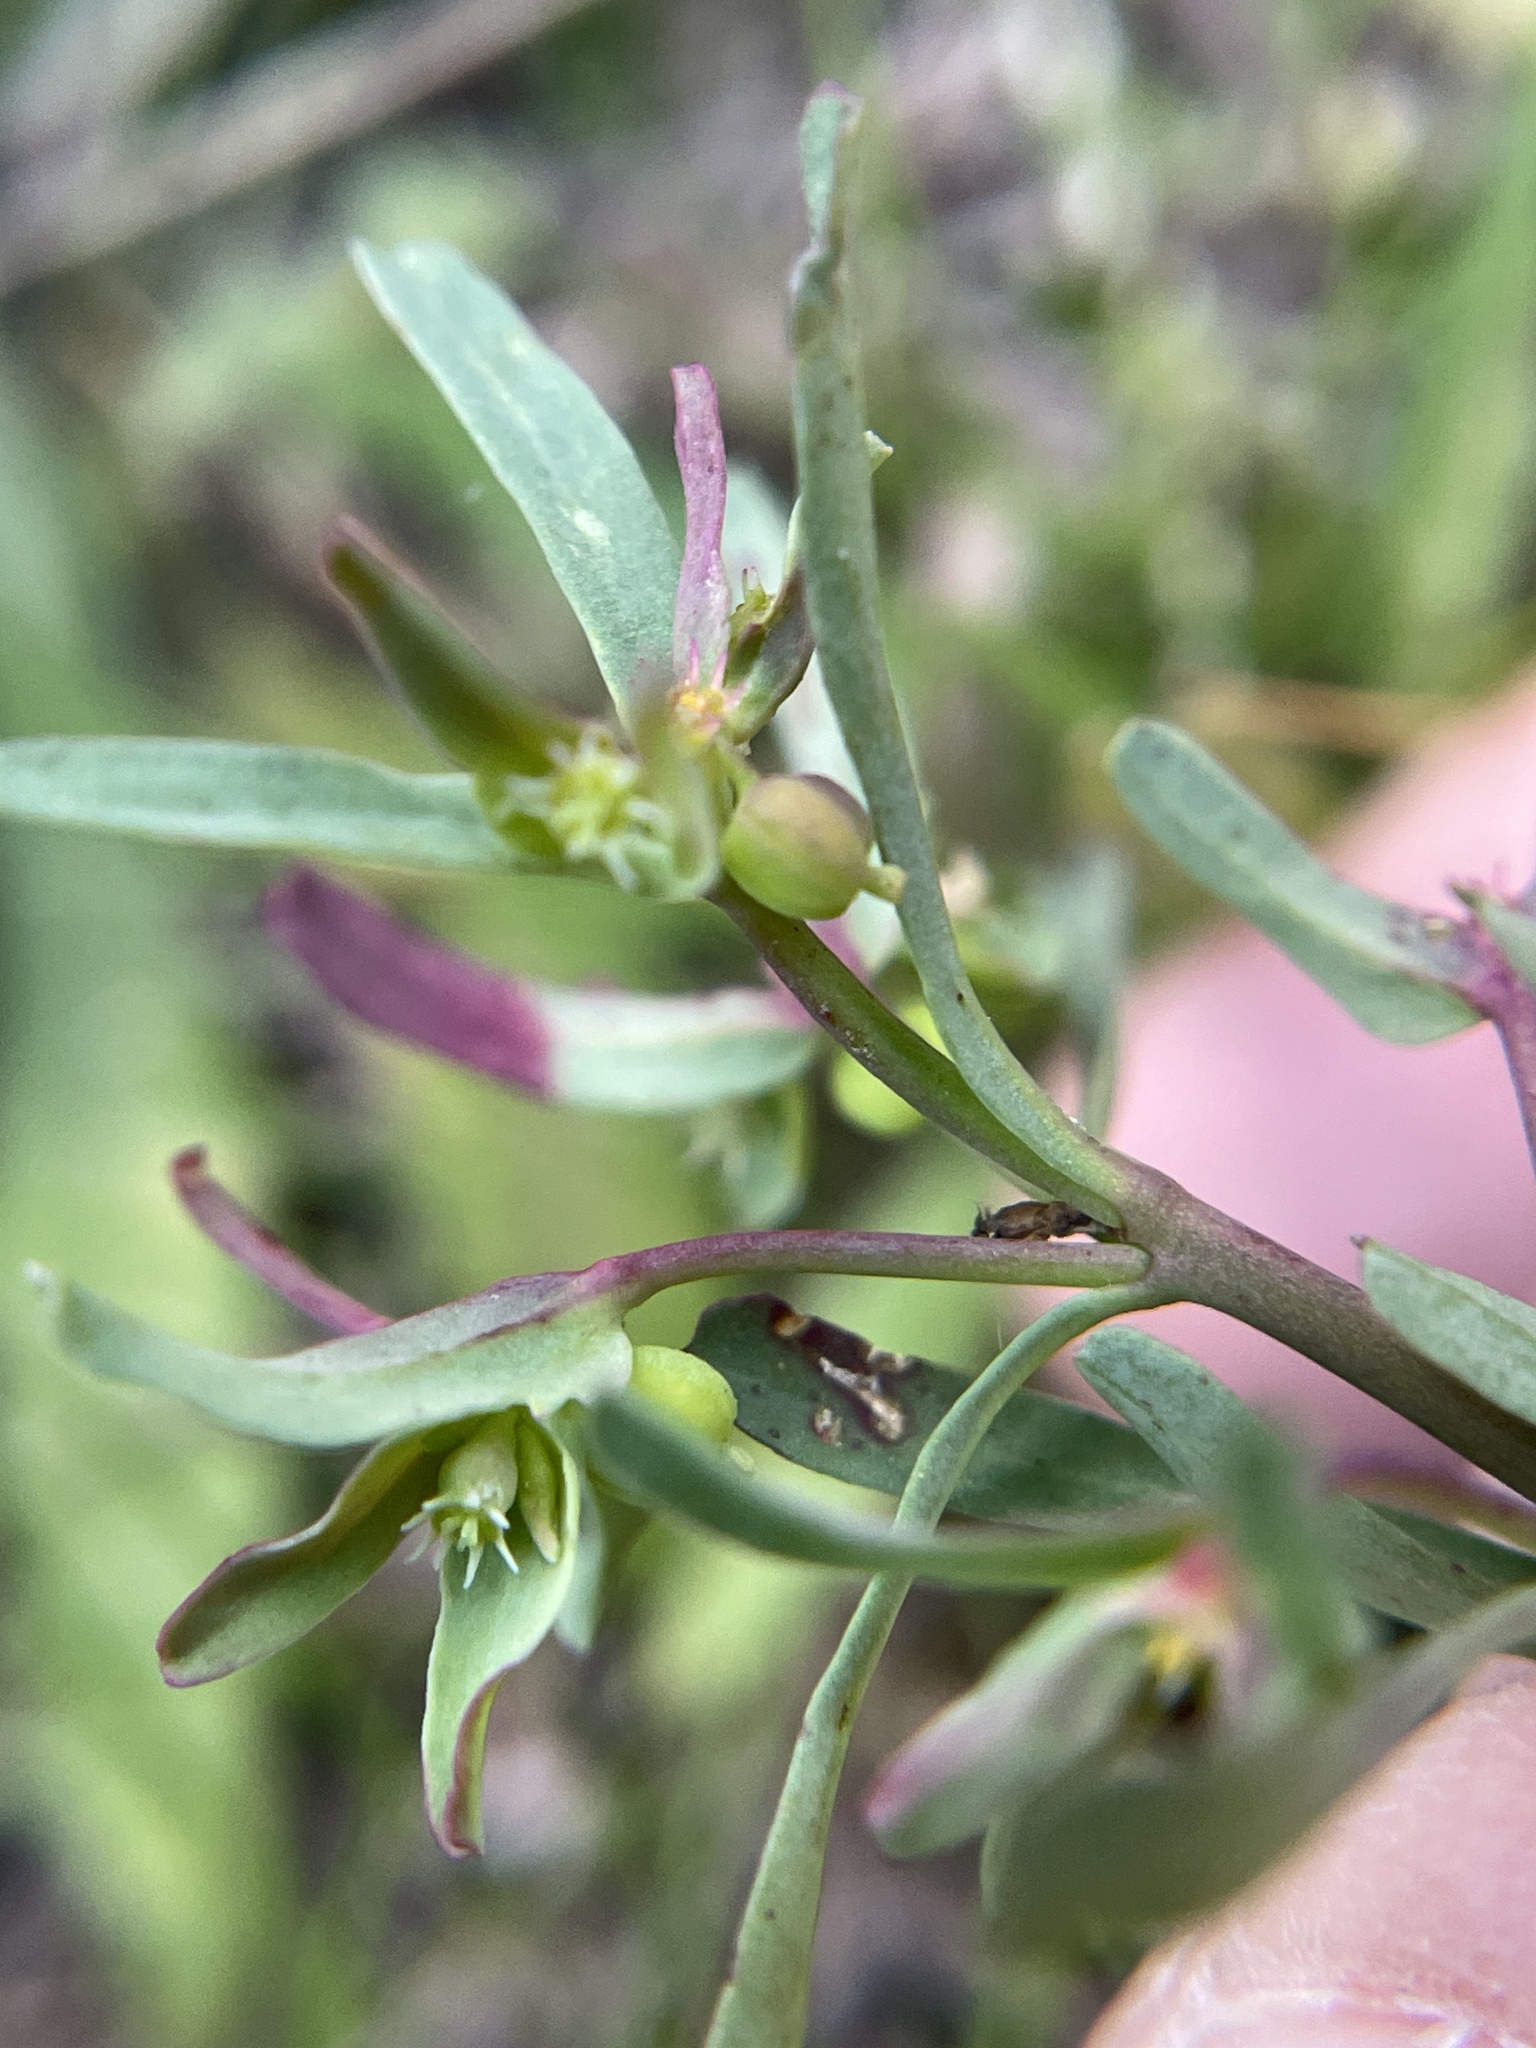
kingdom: Plantae
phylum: Tracheophyta
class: Magnoliopsida
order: Malpighiales
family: Euphorbiaceae
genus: Euphorbia
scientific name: Euphorbia peplidion
